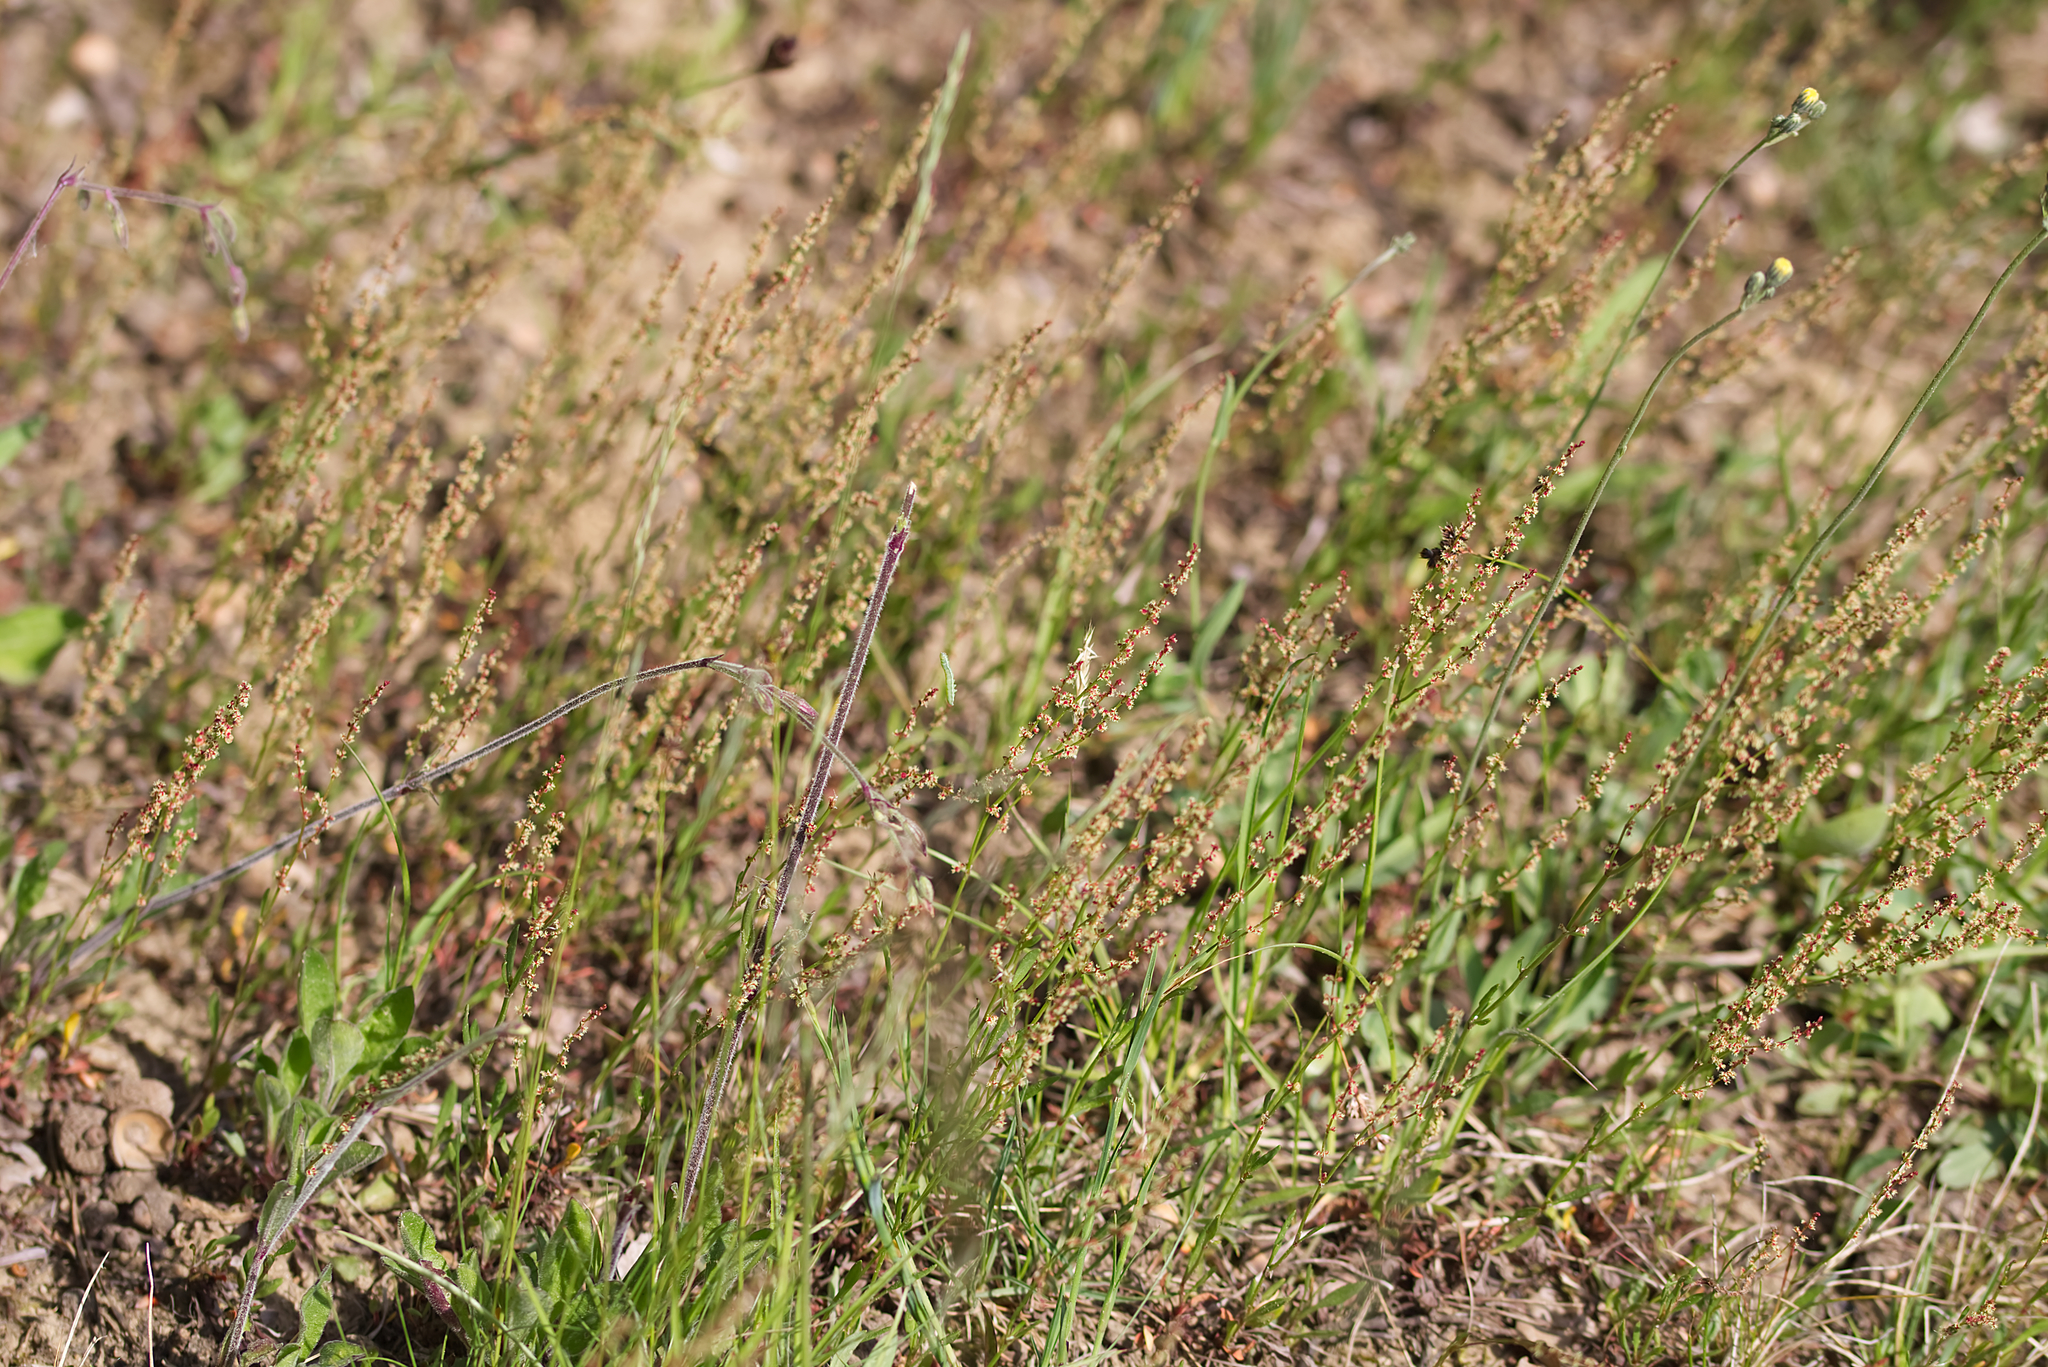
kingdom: Plantae
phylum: Tracheophyta
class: Magnoliopsida
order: Caryophyllales
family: Polygonaceae
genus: Rumex
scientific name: Rumex acetosella
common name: Common sheep sorrel
